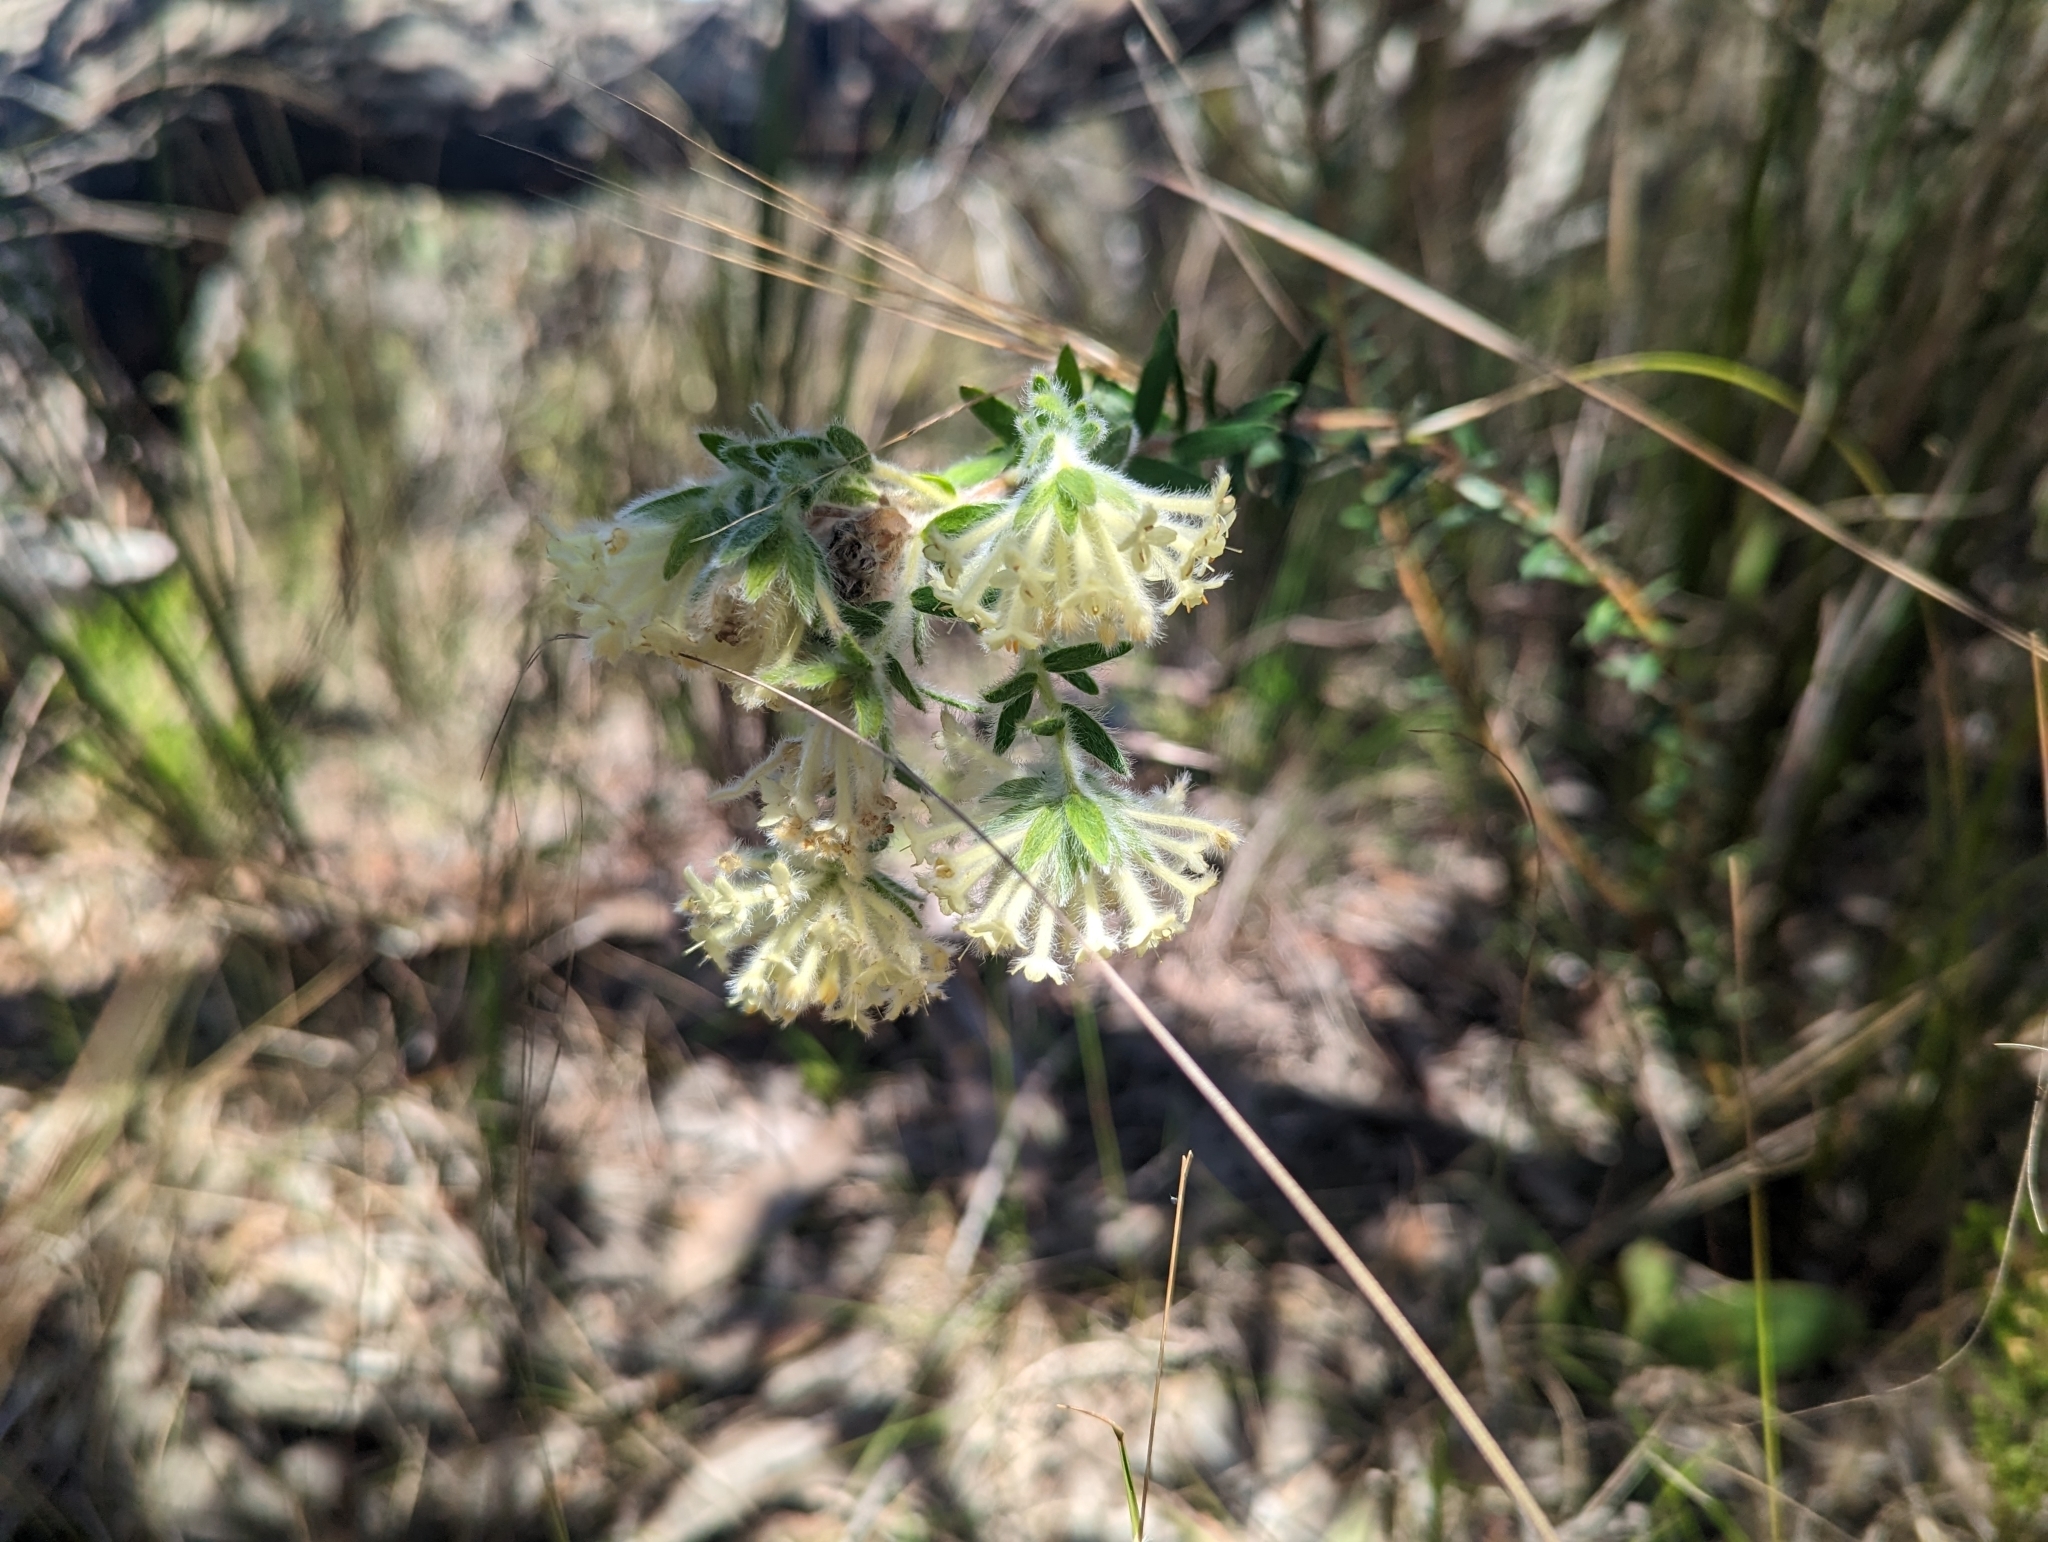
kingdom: Plantae
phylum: Tracheophyta
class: Magnoliopsida
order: Malvales
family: Thymelaeaceae
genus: Pimelea
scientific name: Pimelea octophylla
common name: Woolly riceflower
